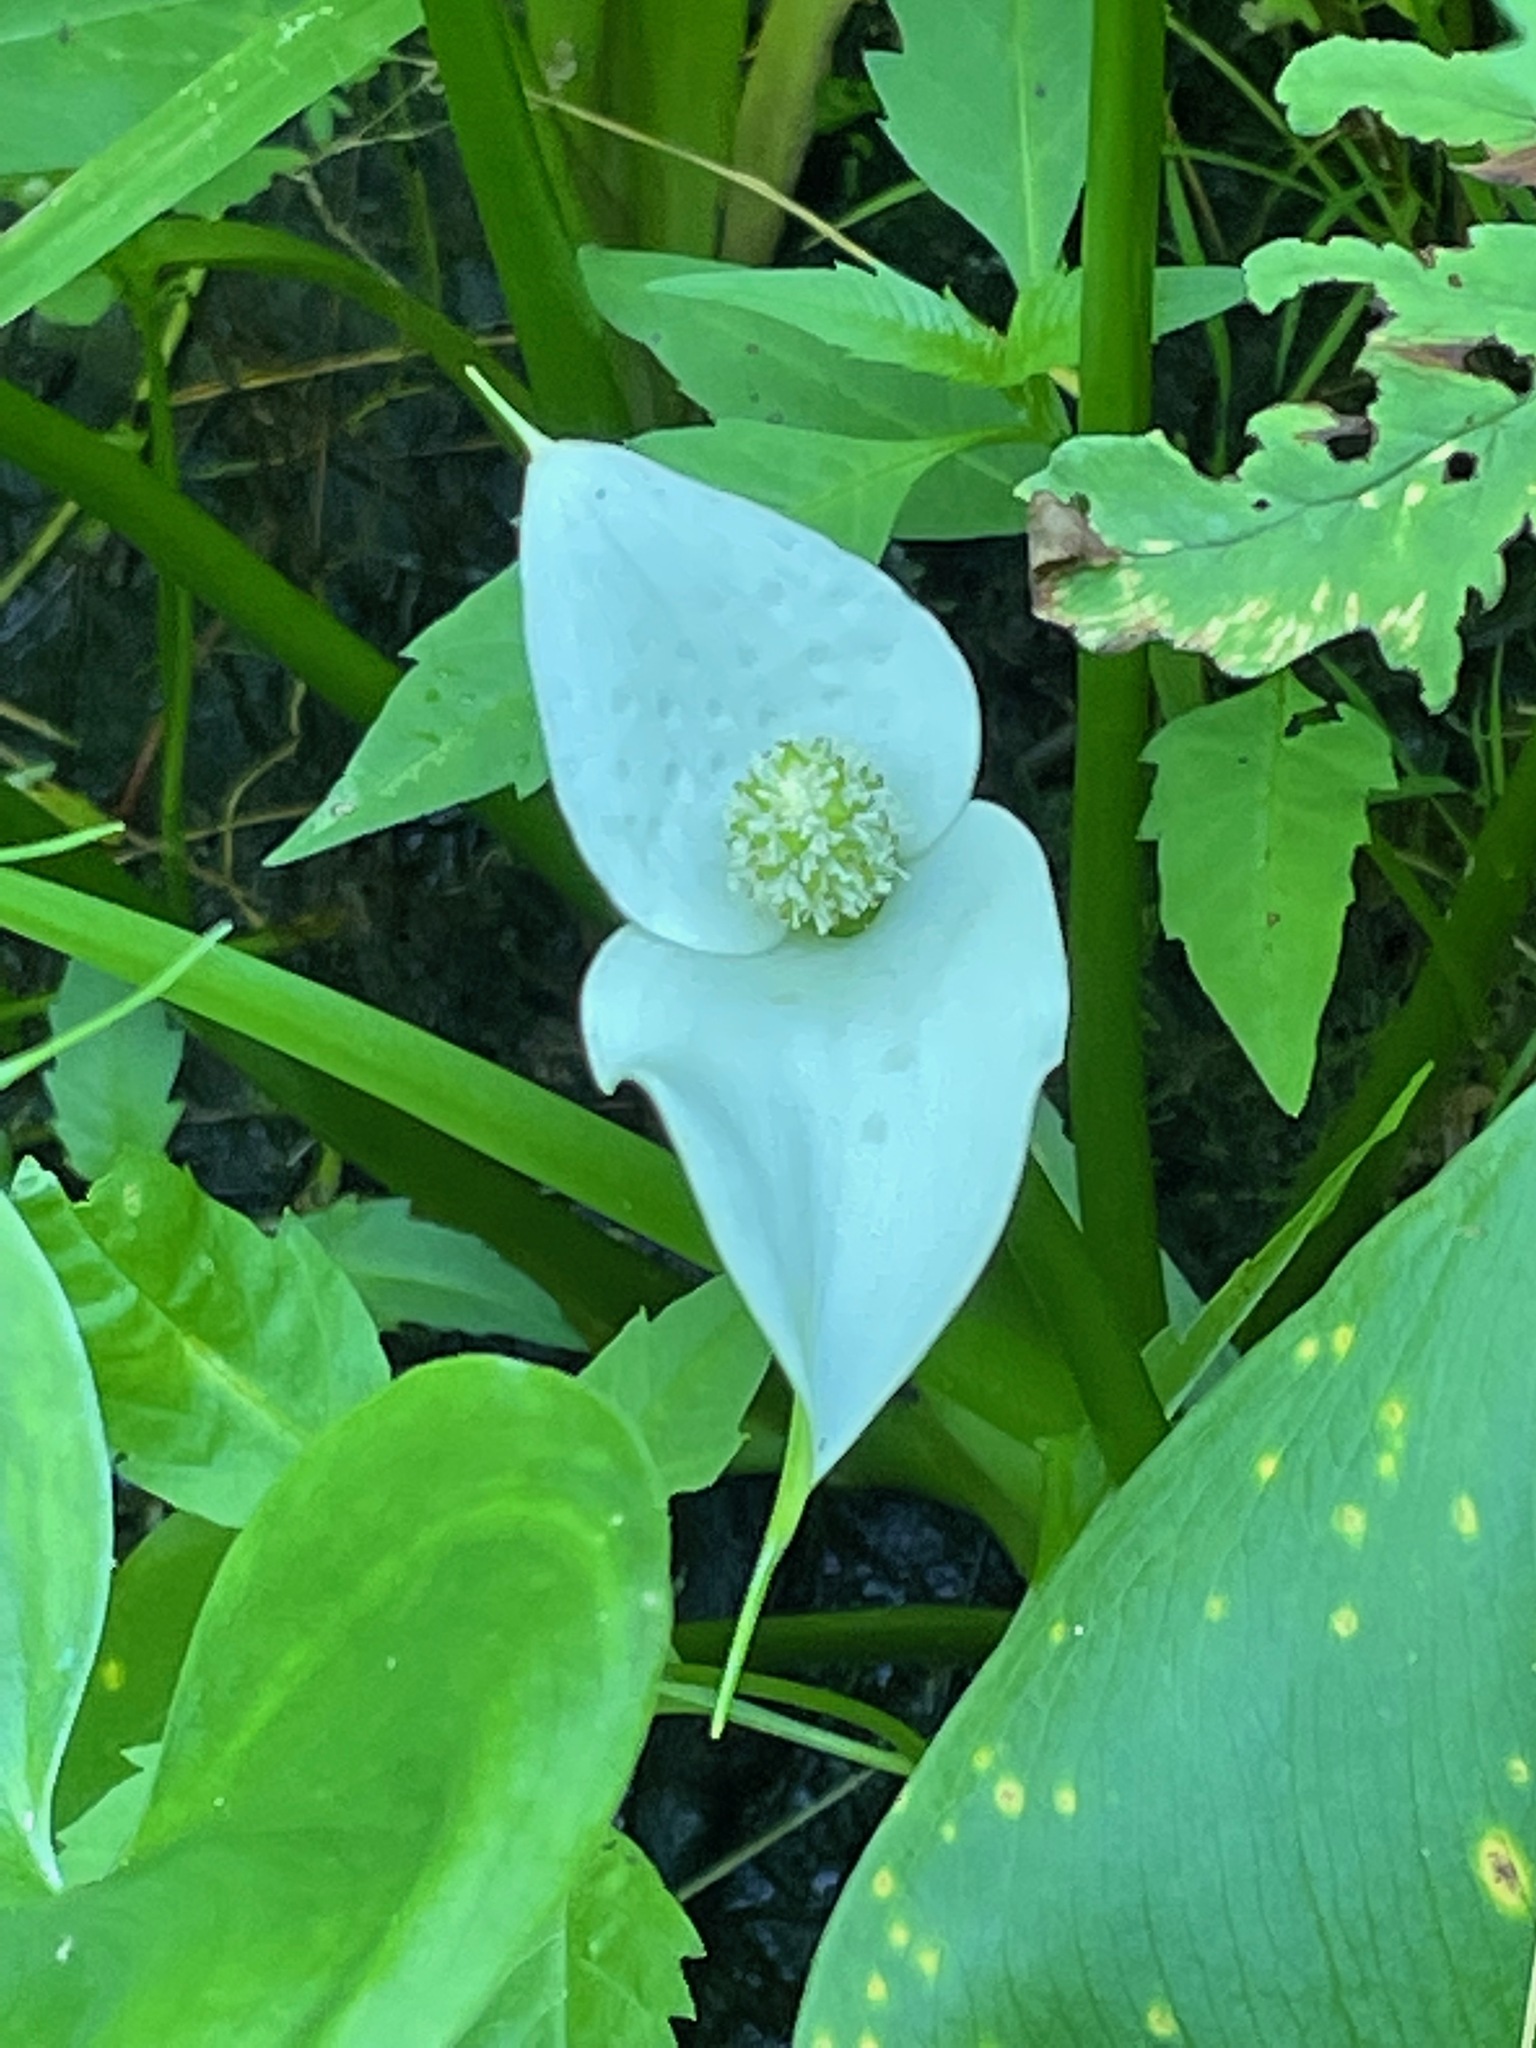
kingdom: Plantae
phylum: Tracheophyta
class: Liliopsida
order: Alismatales
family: Araceae
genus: Calla
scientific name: Calla palustris
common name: Bog arum
